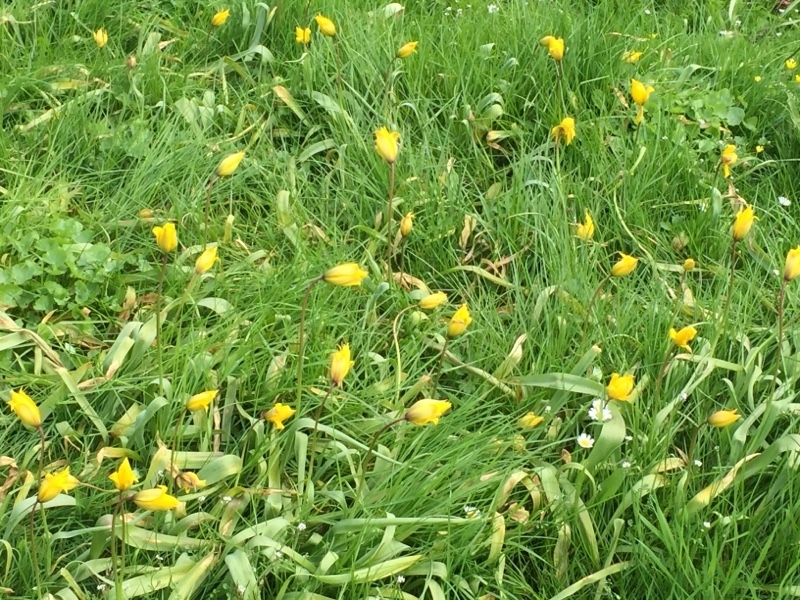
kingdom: Plantae
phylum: Tracheophyta
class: Liliopsida
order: Liliales
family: Liliaceae
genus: Tulipa
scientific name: Tulipa sylvestris
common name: Wild tulip
